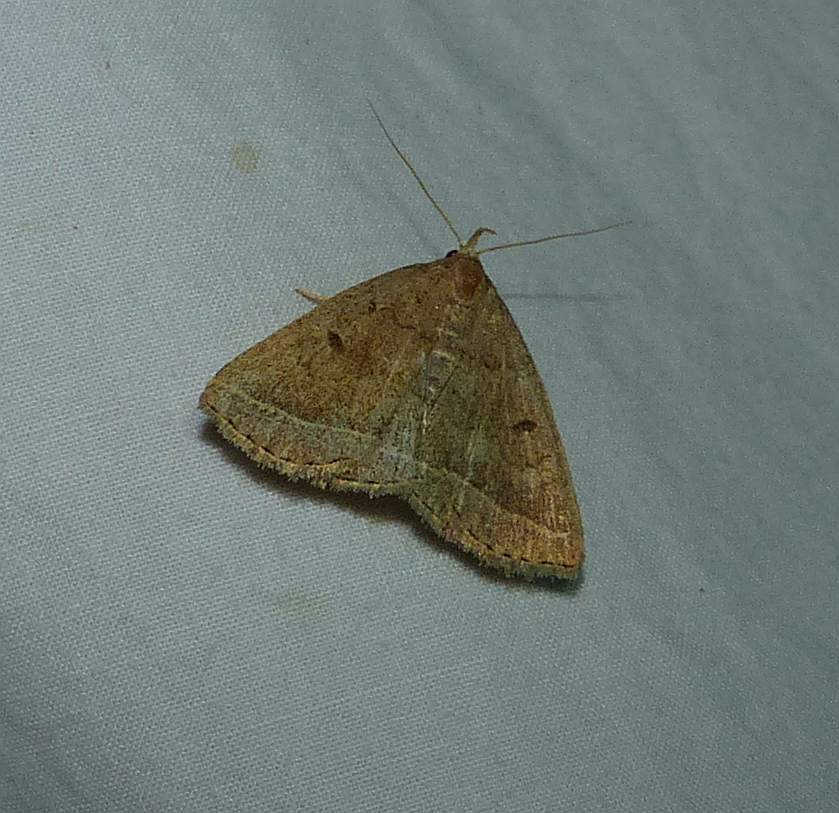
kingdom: Animalia
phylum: Arthropoda
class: Insecta
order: Lepidoptera
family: Erebidae
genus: Zanclognatha
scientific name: Zanclognatha jacchusalis
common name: Yellowish zanclognatha
